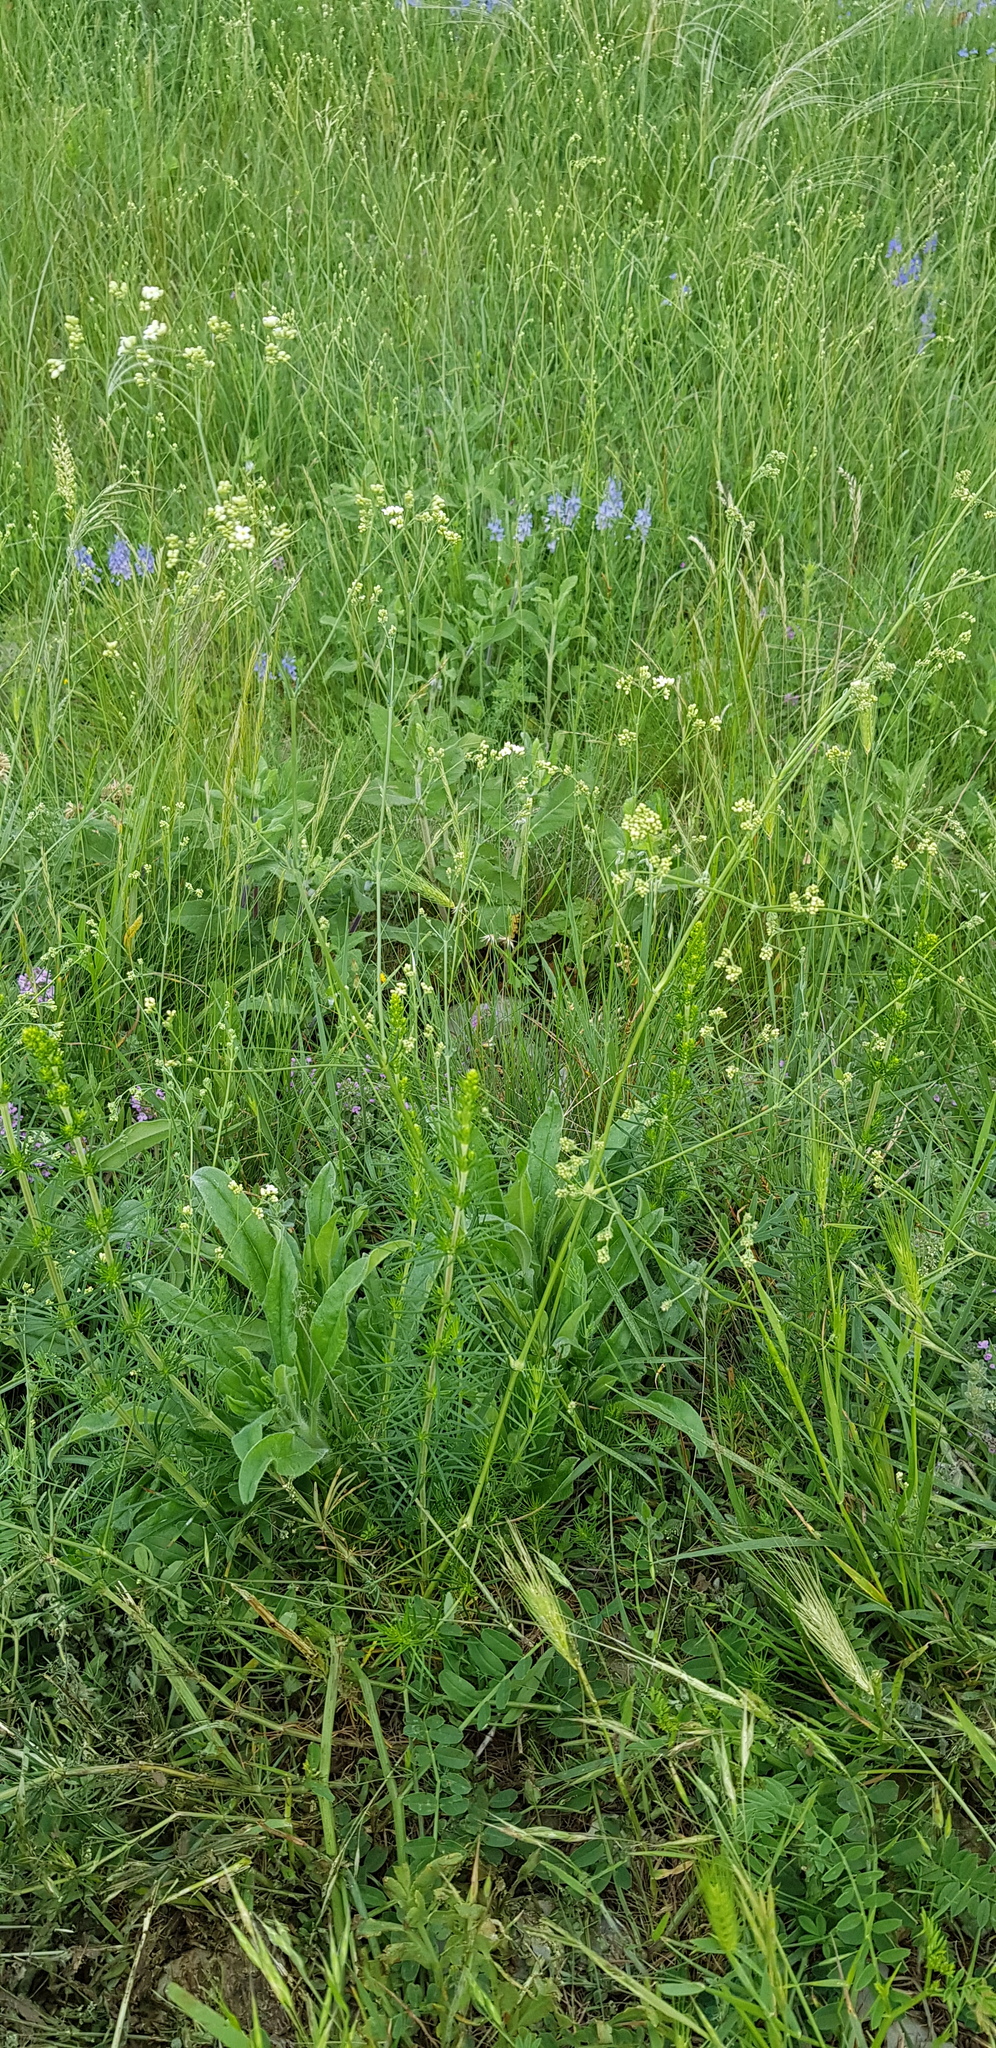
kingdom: Plantae
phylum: Tracheophyta
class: Magnoliopsida
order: Gentianales
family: Rubiaceae
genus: Galium
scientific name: Galium xeroticum
